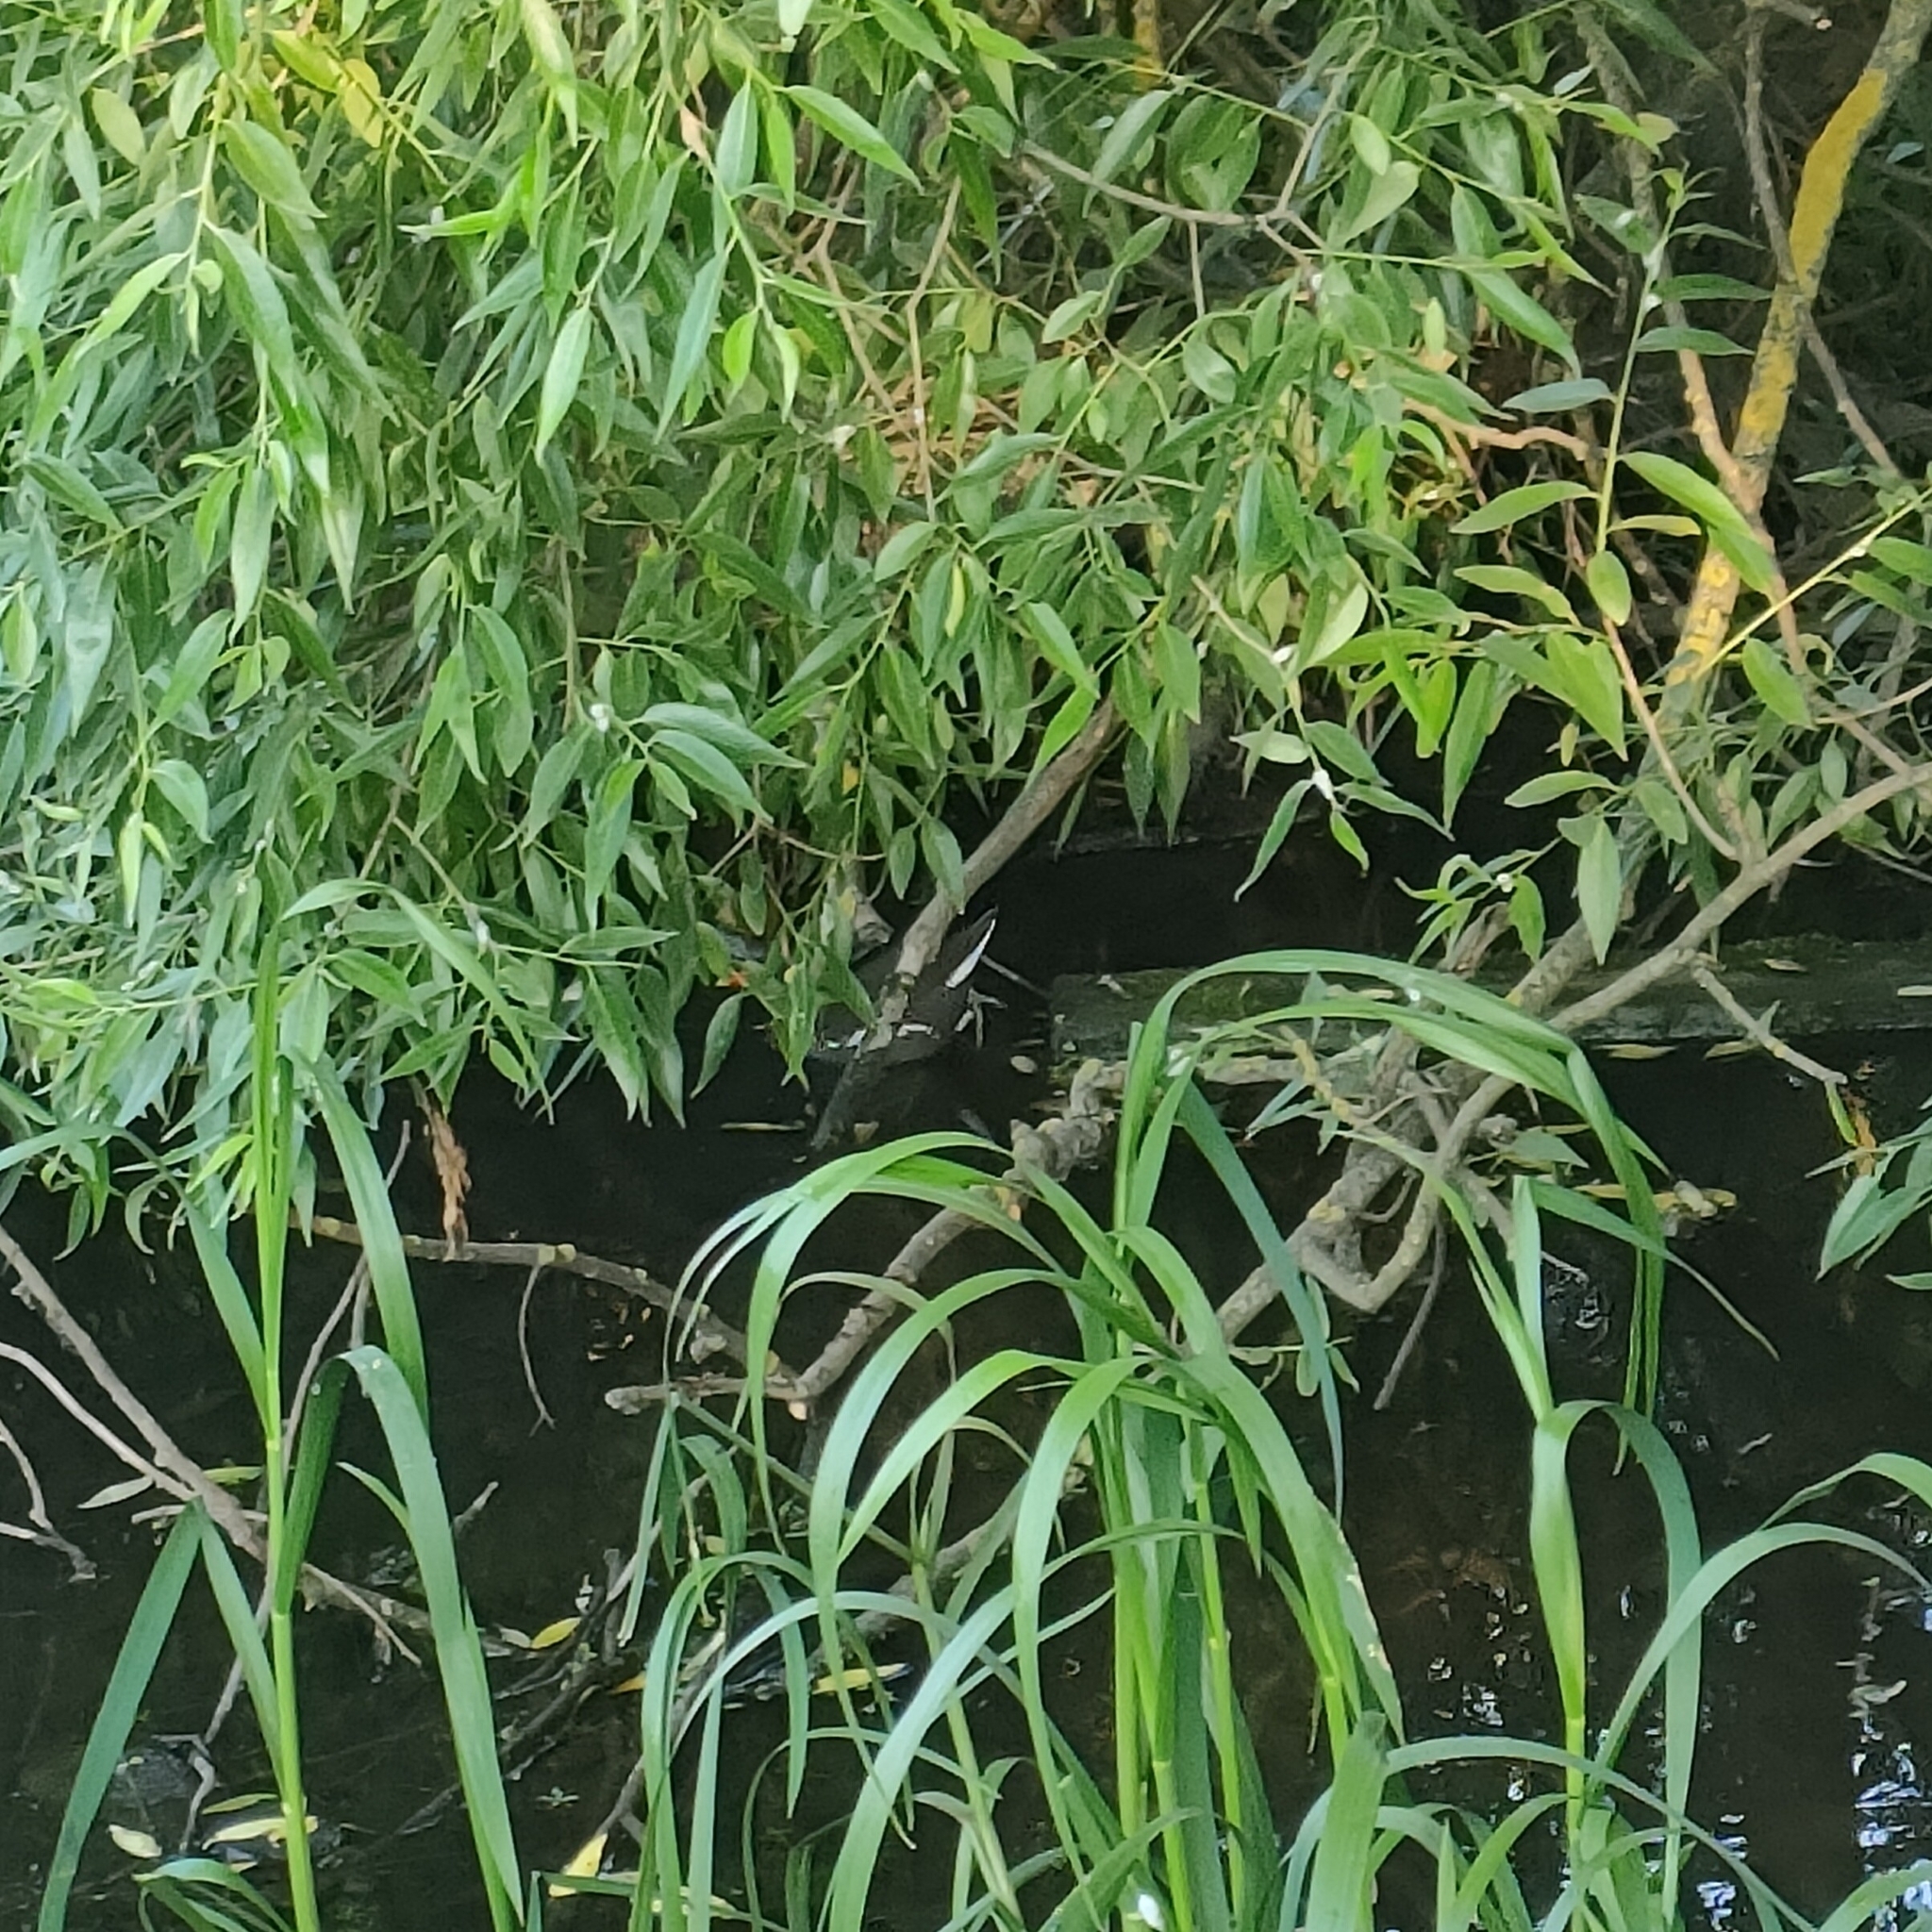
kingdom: Animalia
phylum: Chordata
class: Aves
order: Gruiformes
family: Rallidae
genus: Gallinula
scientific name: Gallinula chloropus
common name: Common moorhen
